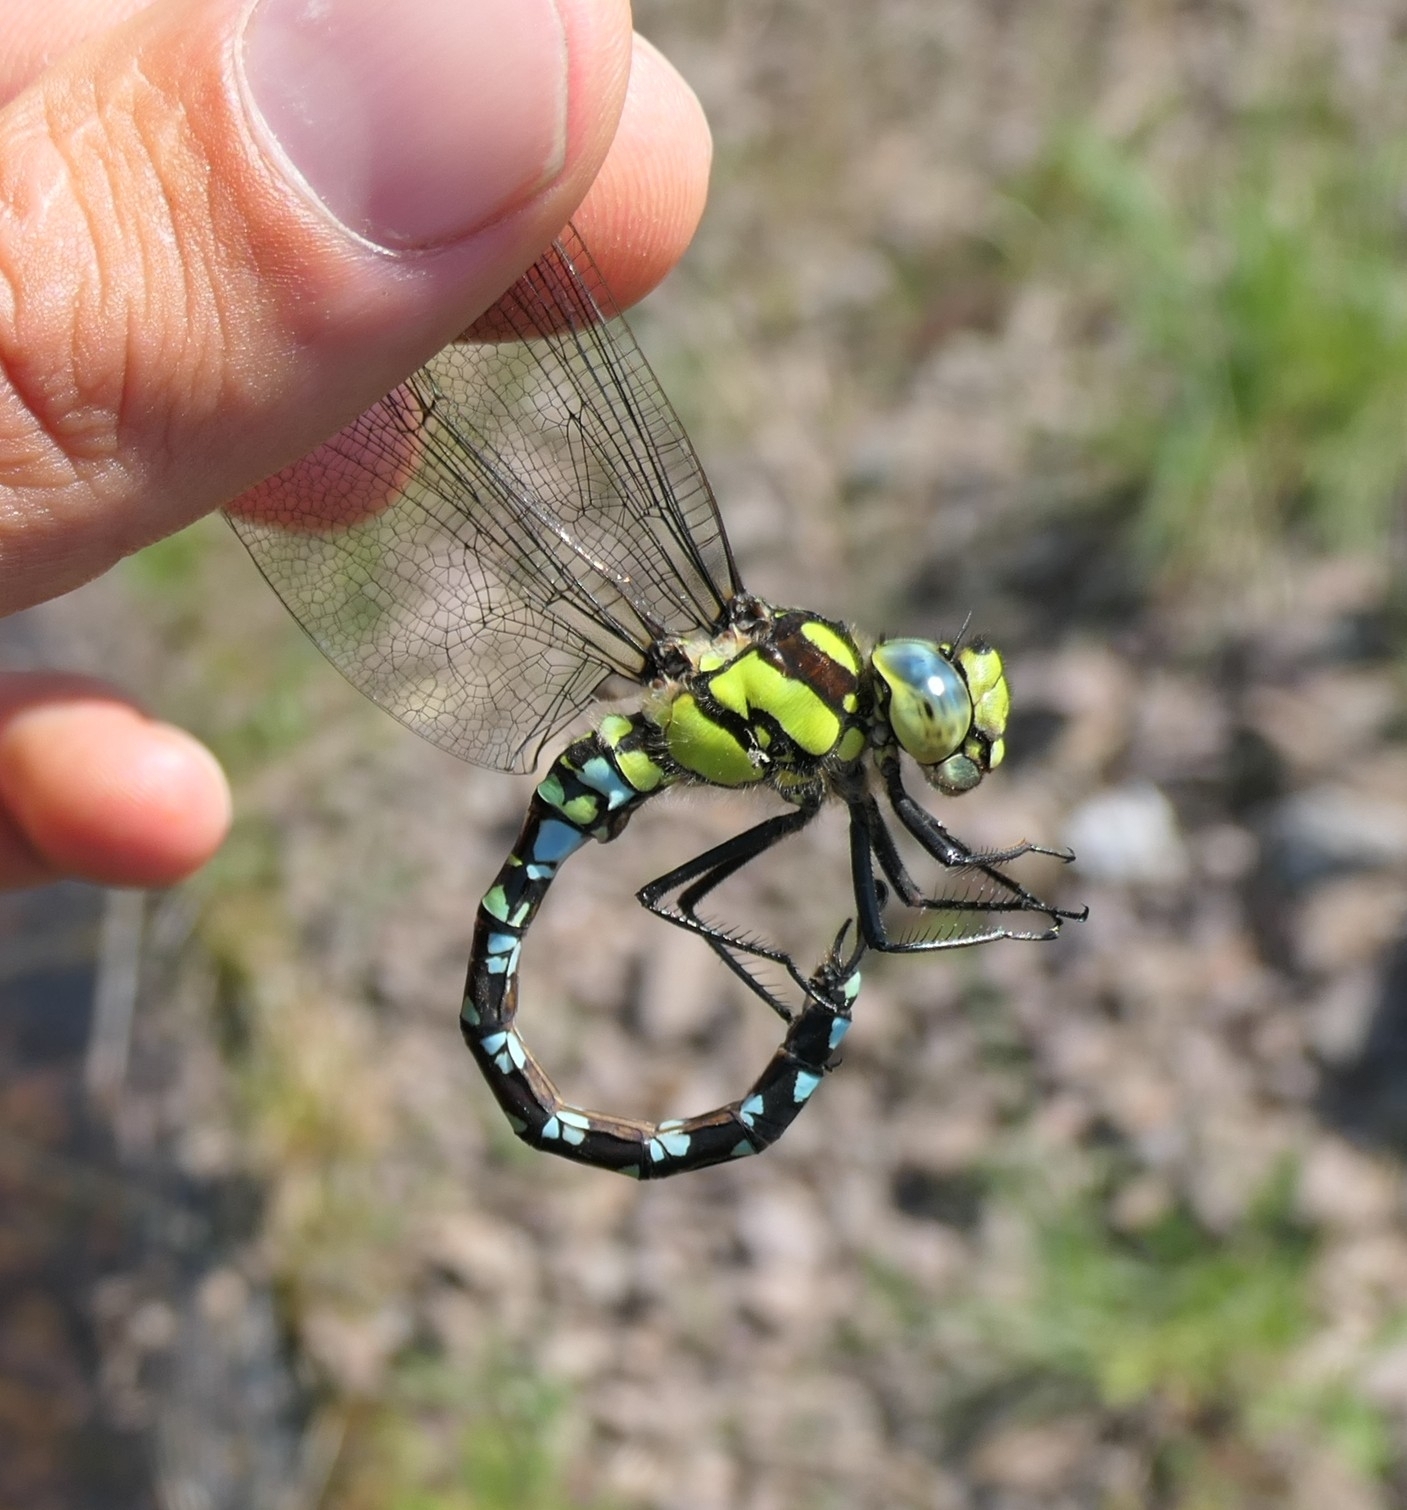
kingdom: Animalia
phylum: Arthropoda
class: Insecta
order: Odonata
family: Aeshnidae
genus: Aeshna
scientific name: Aeshna cyanea
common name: Southern hawker
